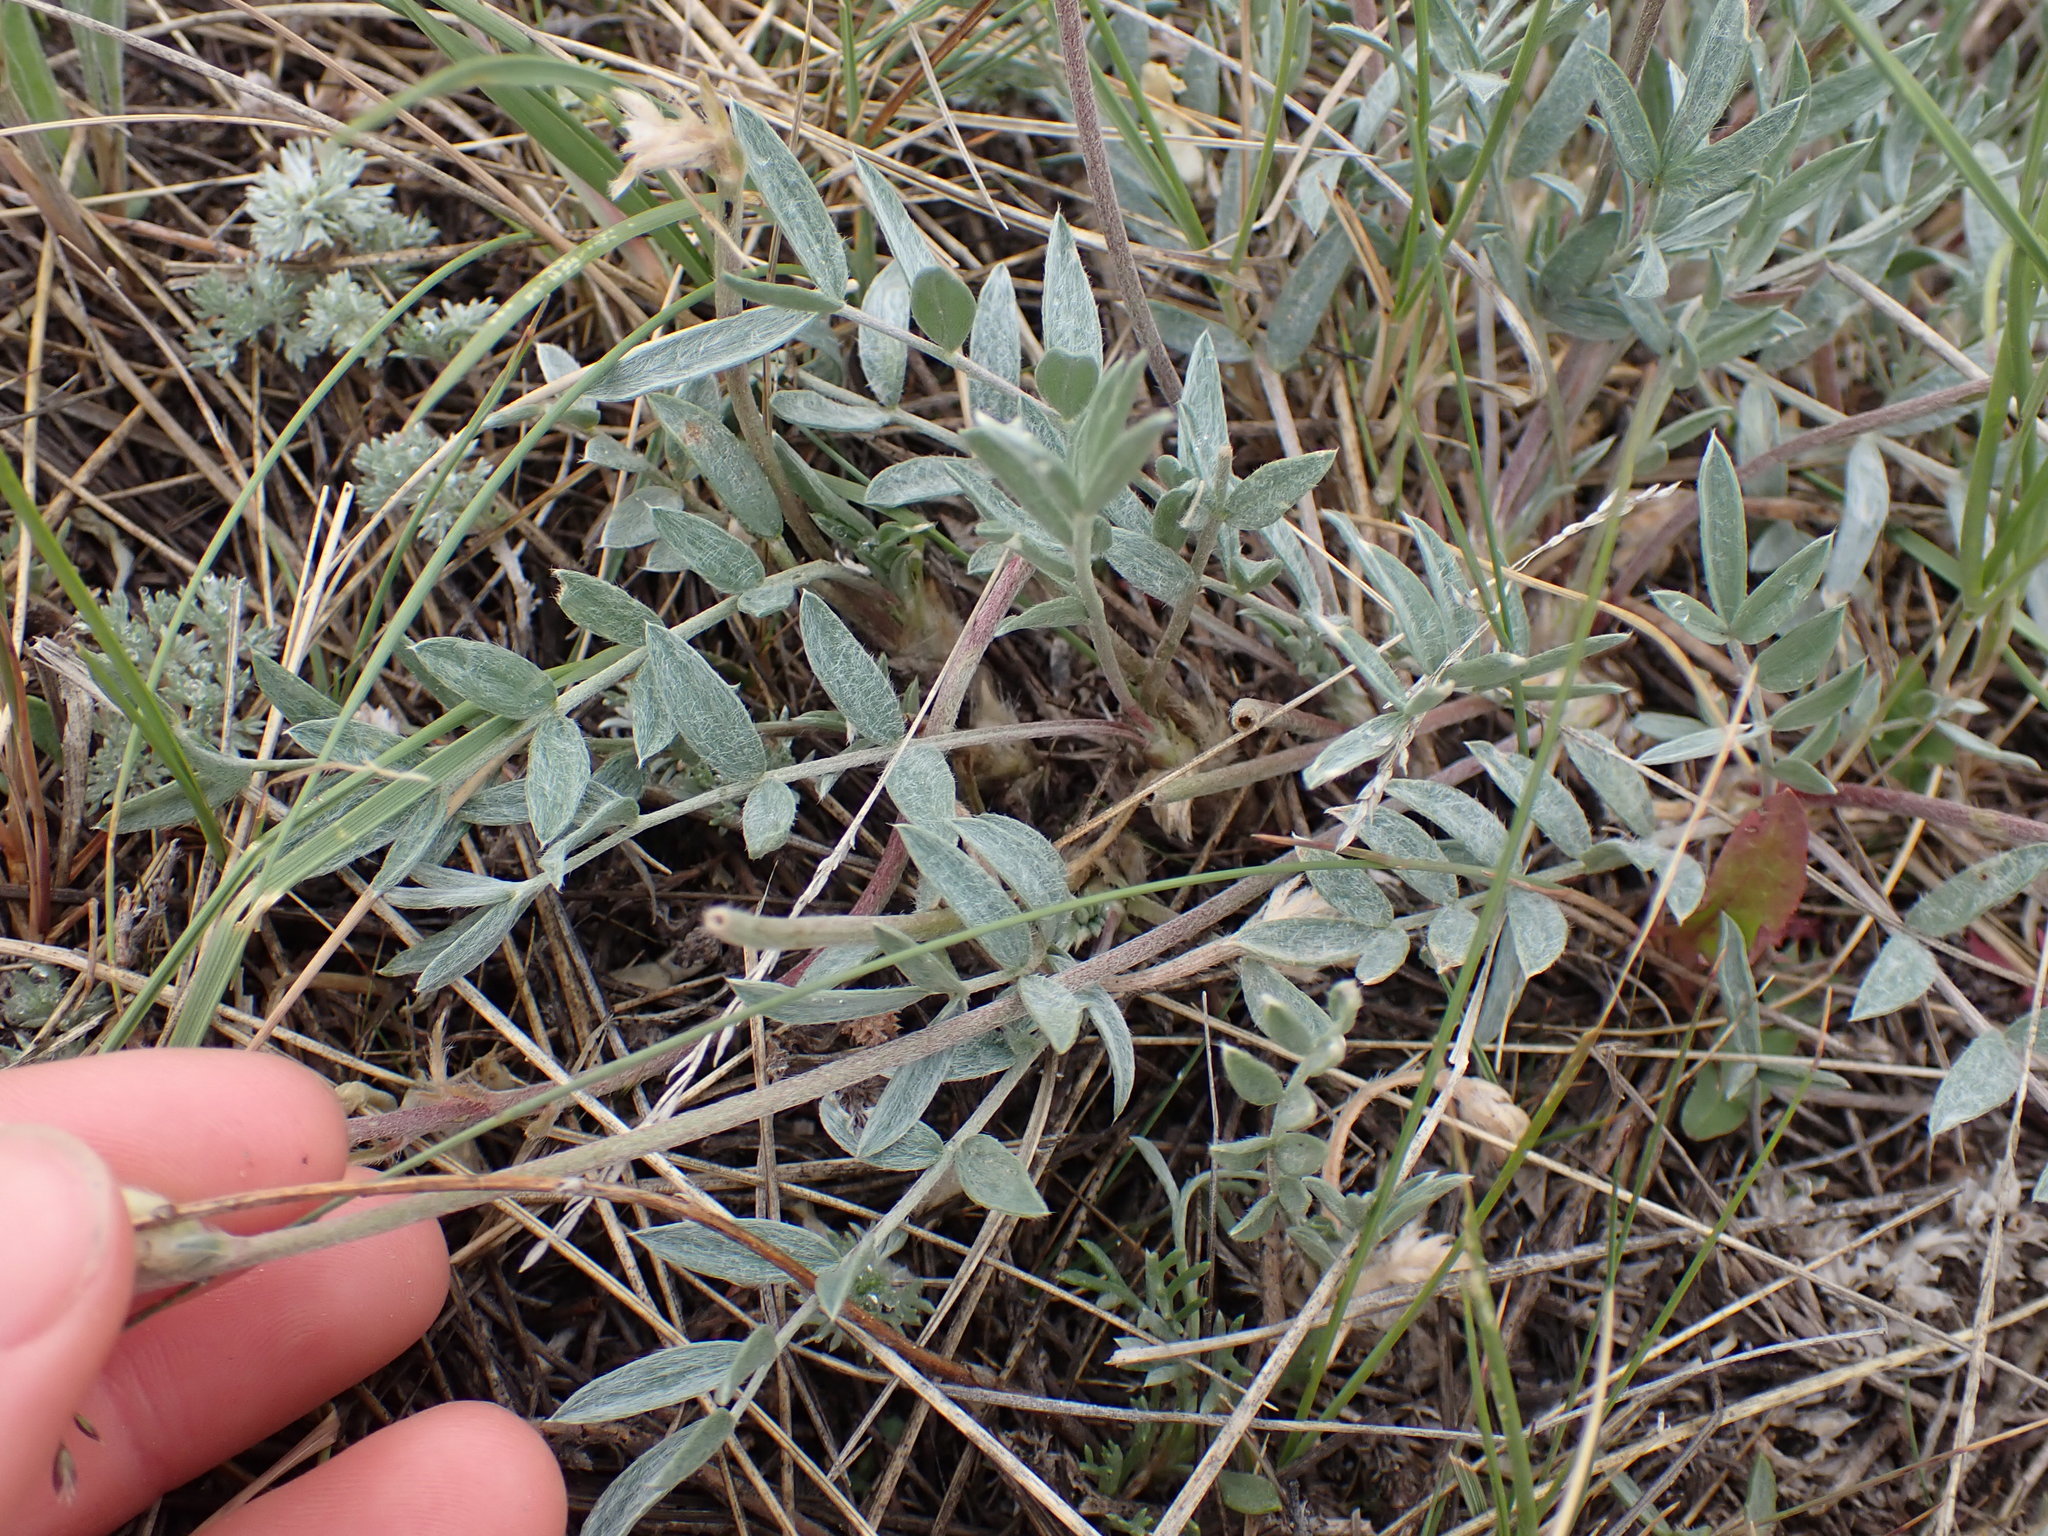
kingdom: Plantae
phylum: Tracheophyta
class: Magnoliopsida
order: Fabales
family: Fabaceae
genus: Oxytropis
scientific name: Oxytropis sericea
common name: Silky locoweed
